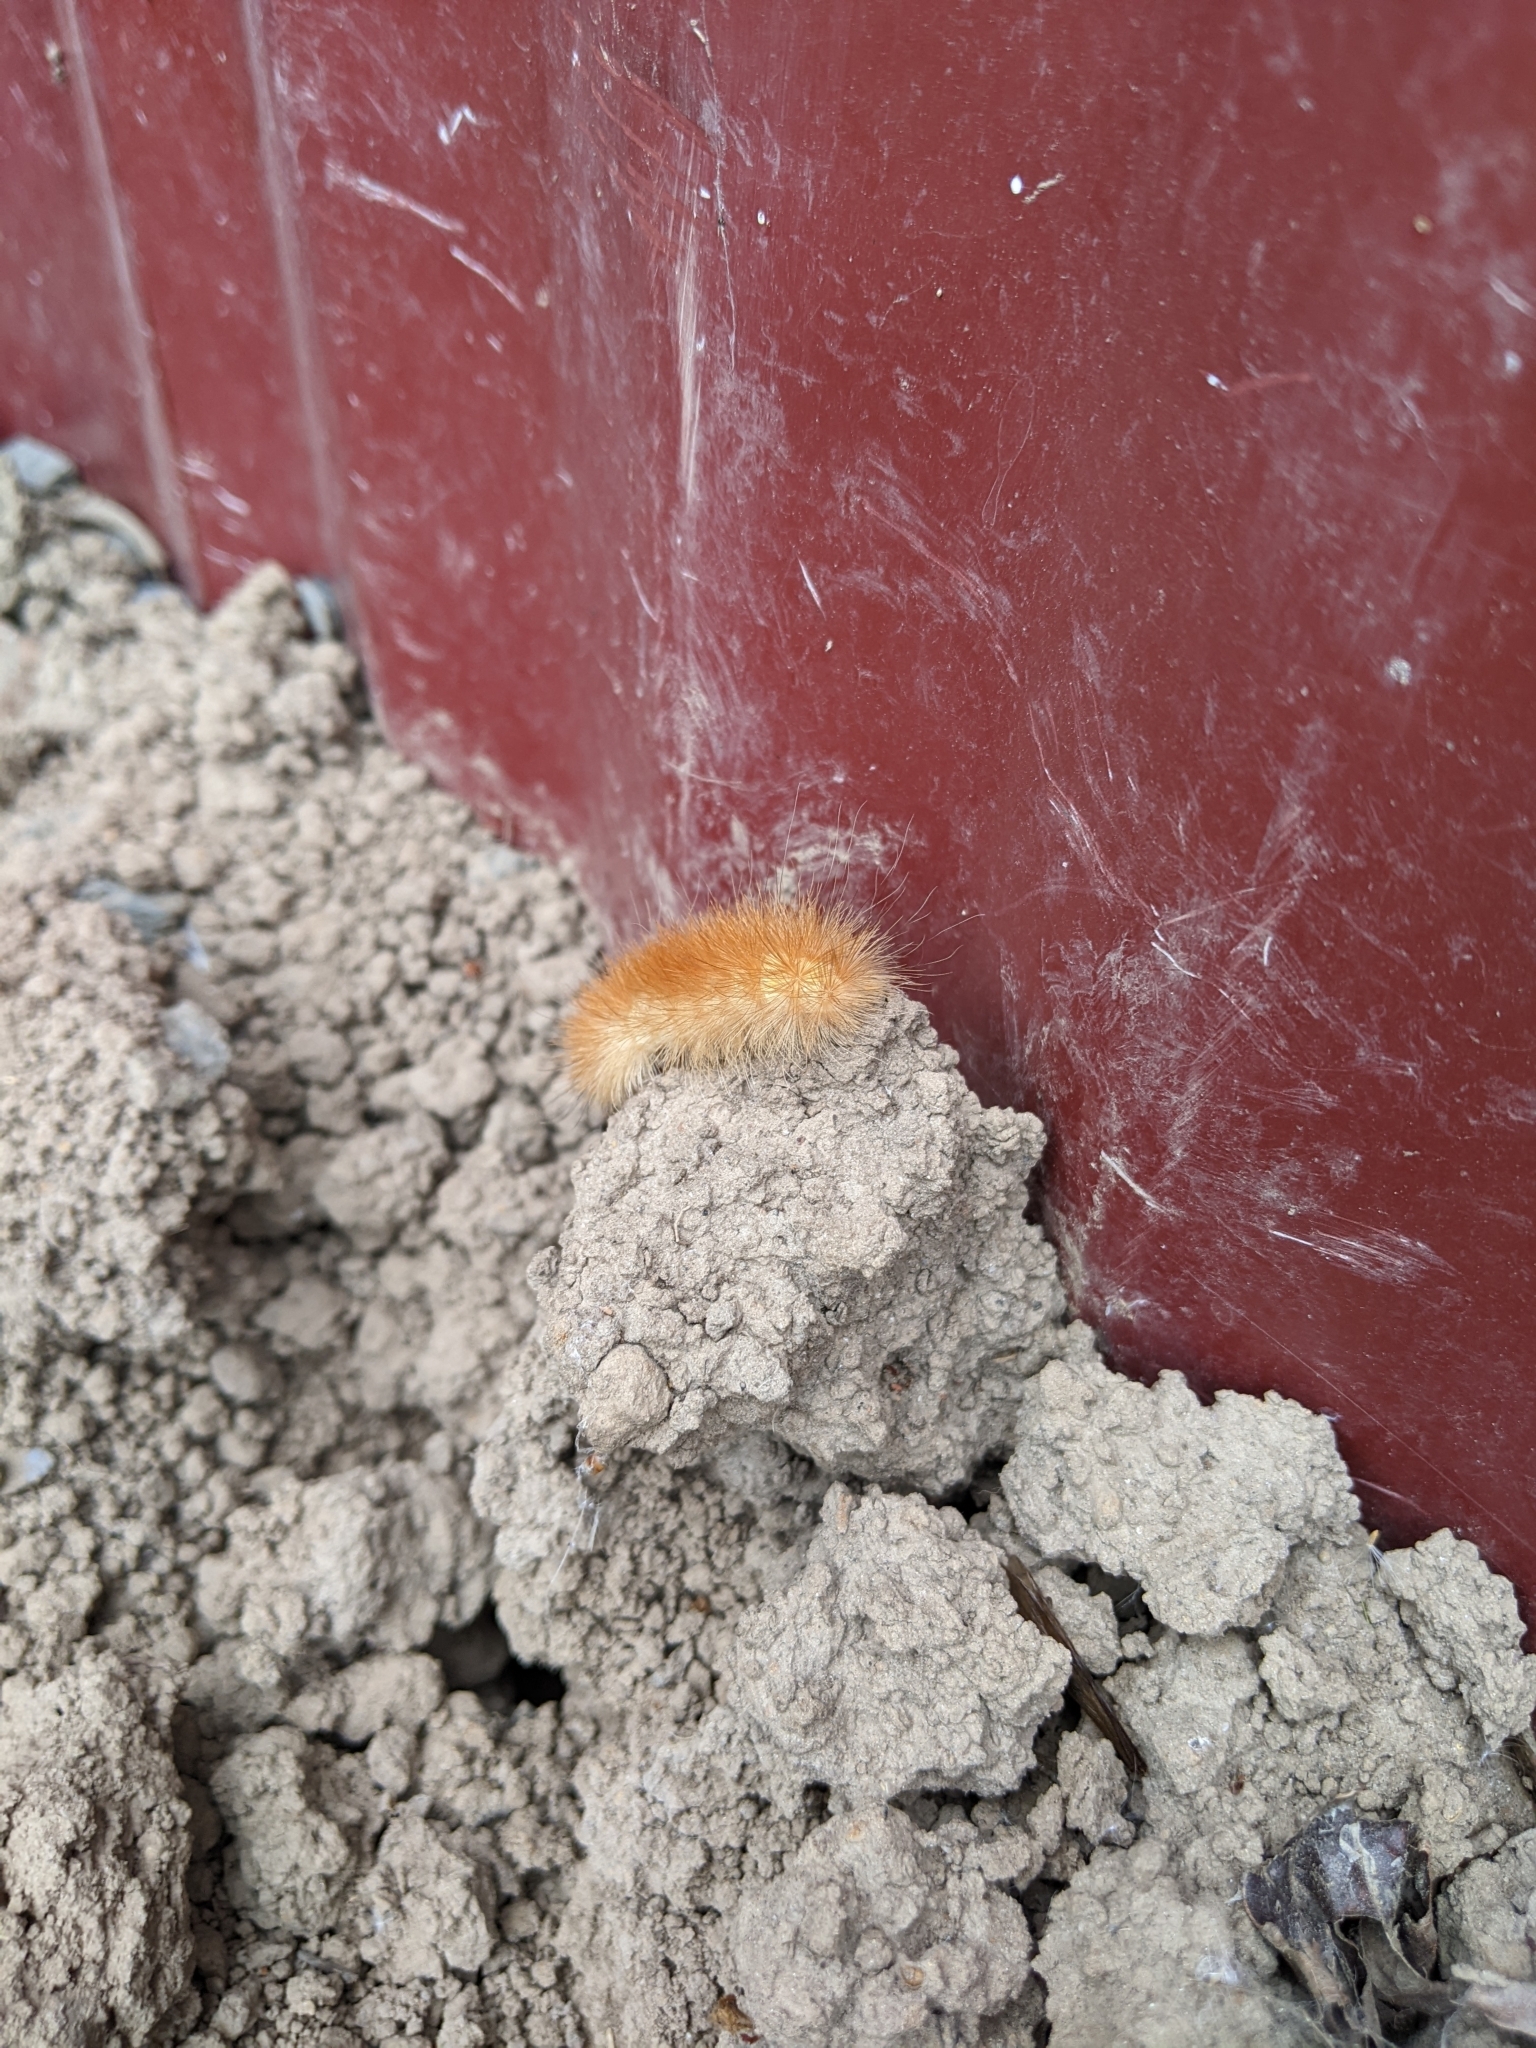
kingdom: Animalia
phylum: Arthropoda
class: Insecta
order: Lepidoptera
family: Erebidae
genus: Spilosoma
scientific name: Spilosoma virginica
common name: Virginia tiger moth
